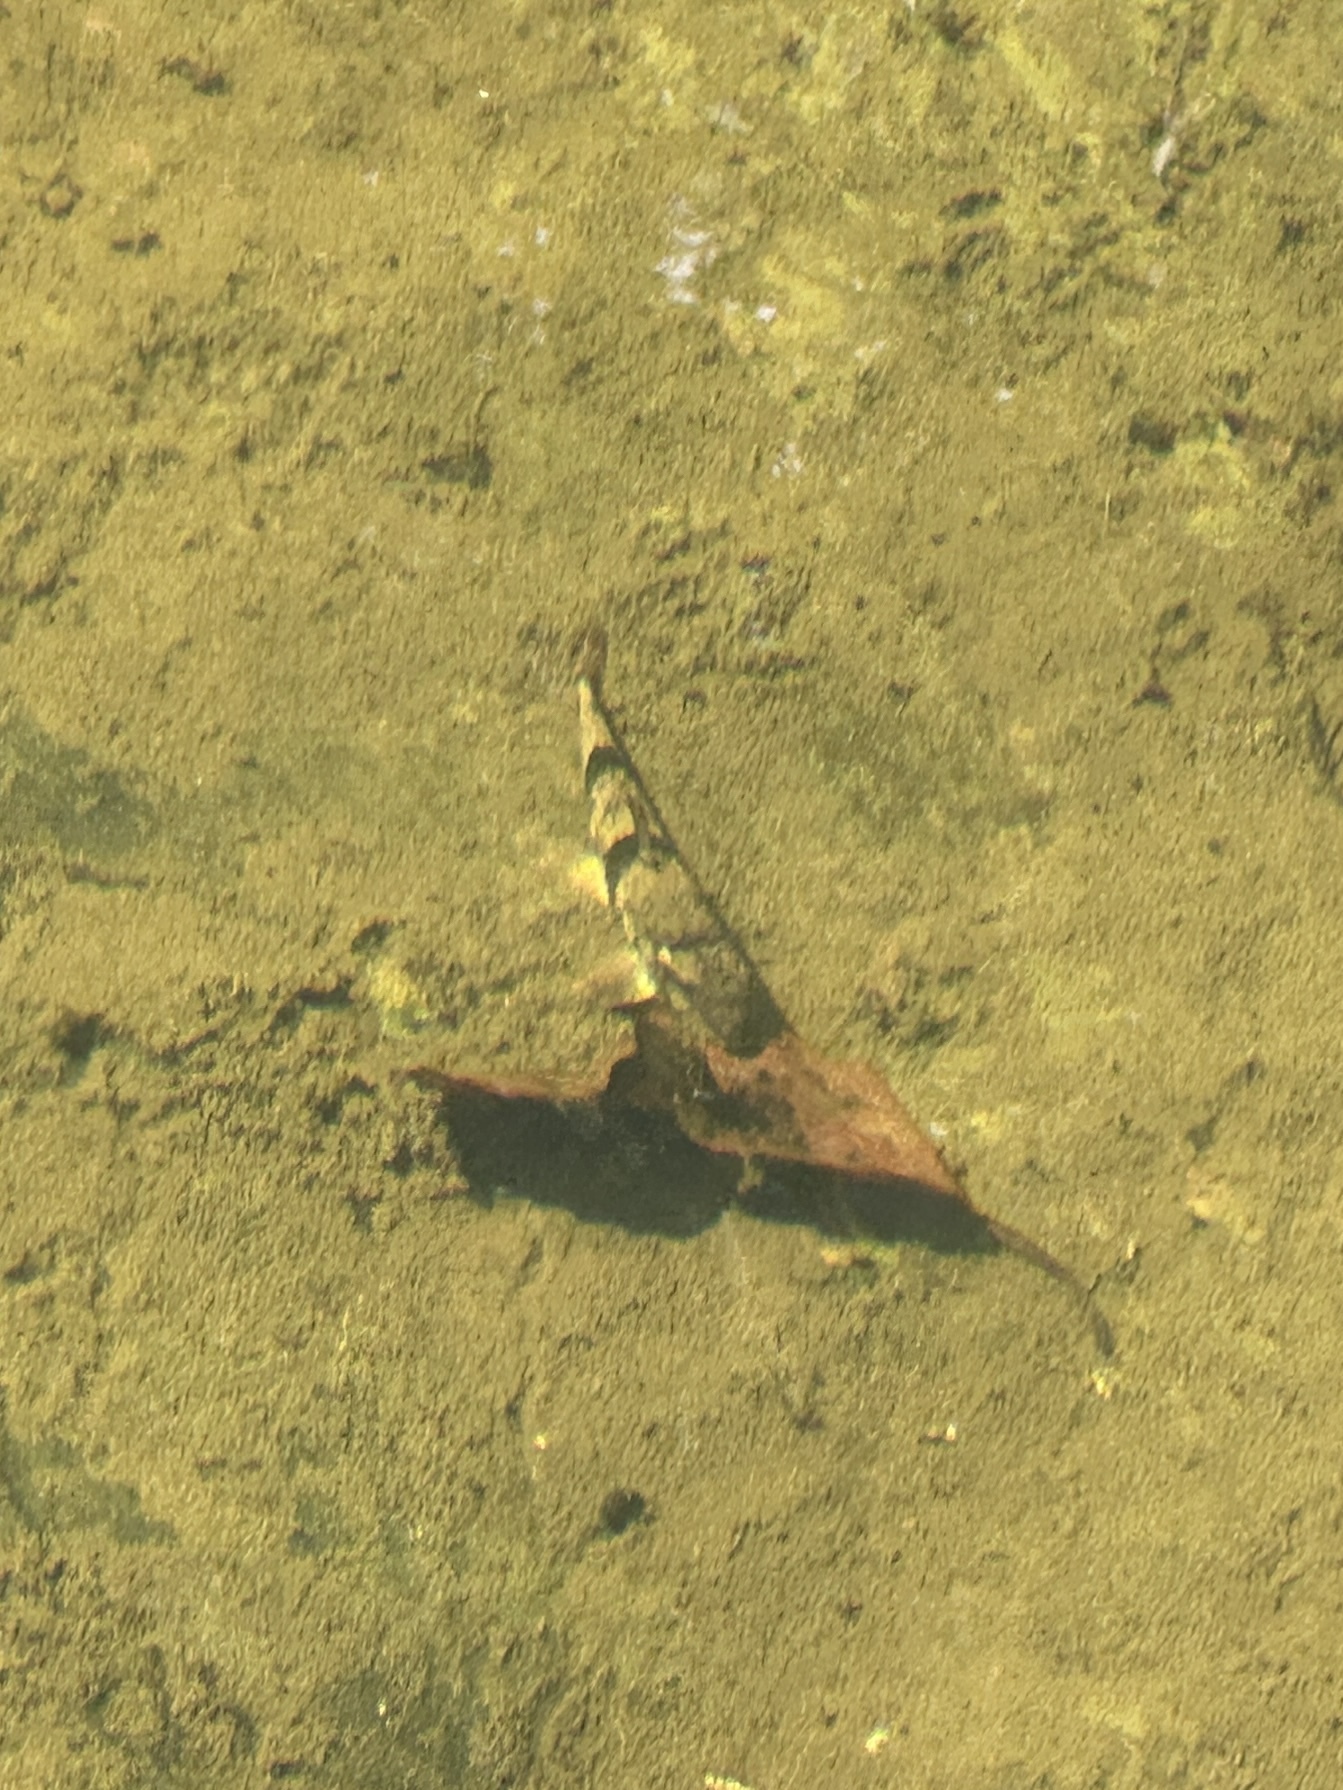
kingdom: Animalia
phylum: Chordata
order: Cypriniformes
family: Catostomidae
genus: Hypentelium
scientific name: Hypentelium etowanum
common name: Alabama hog sucker
